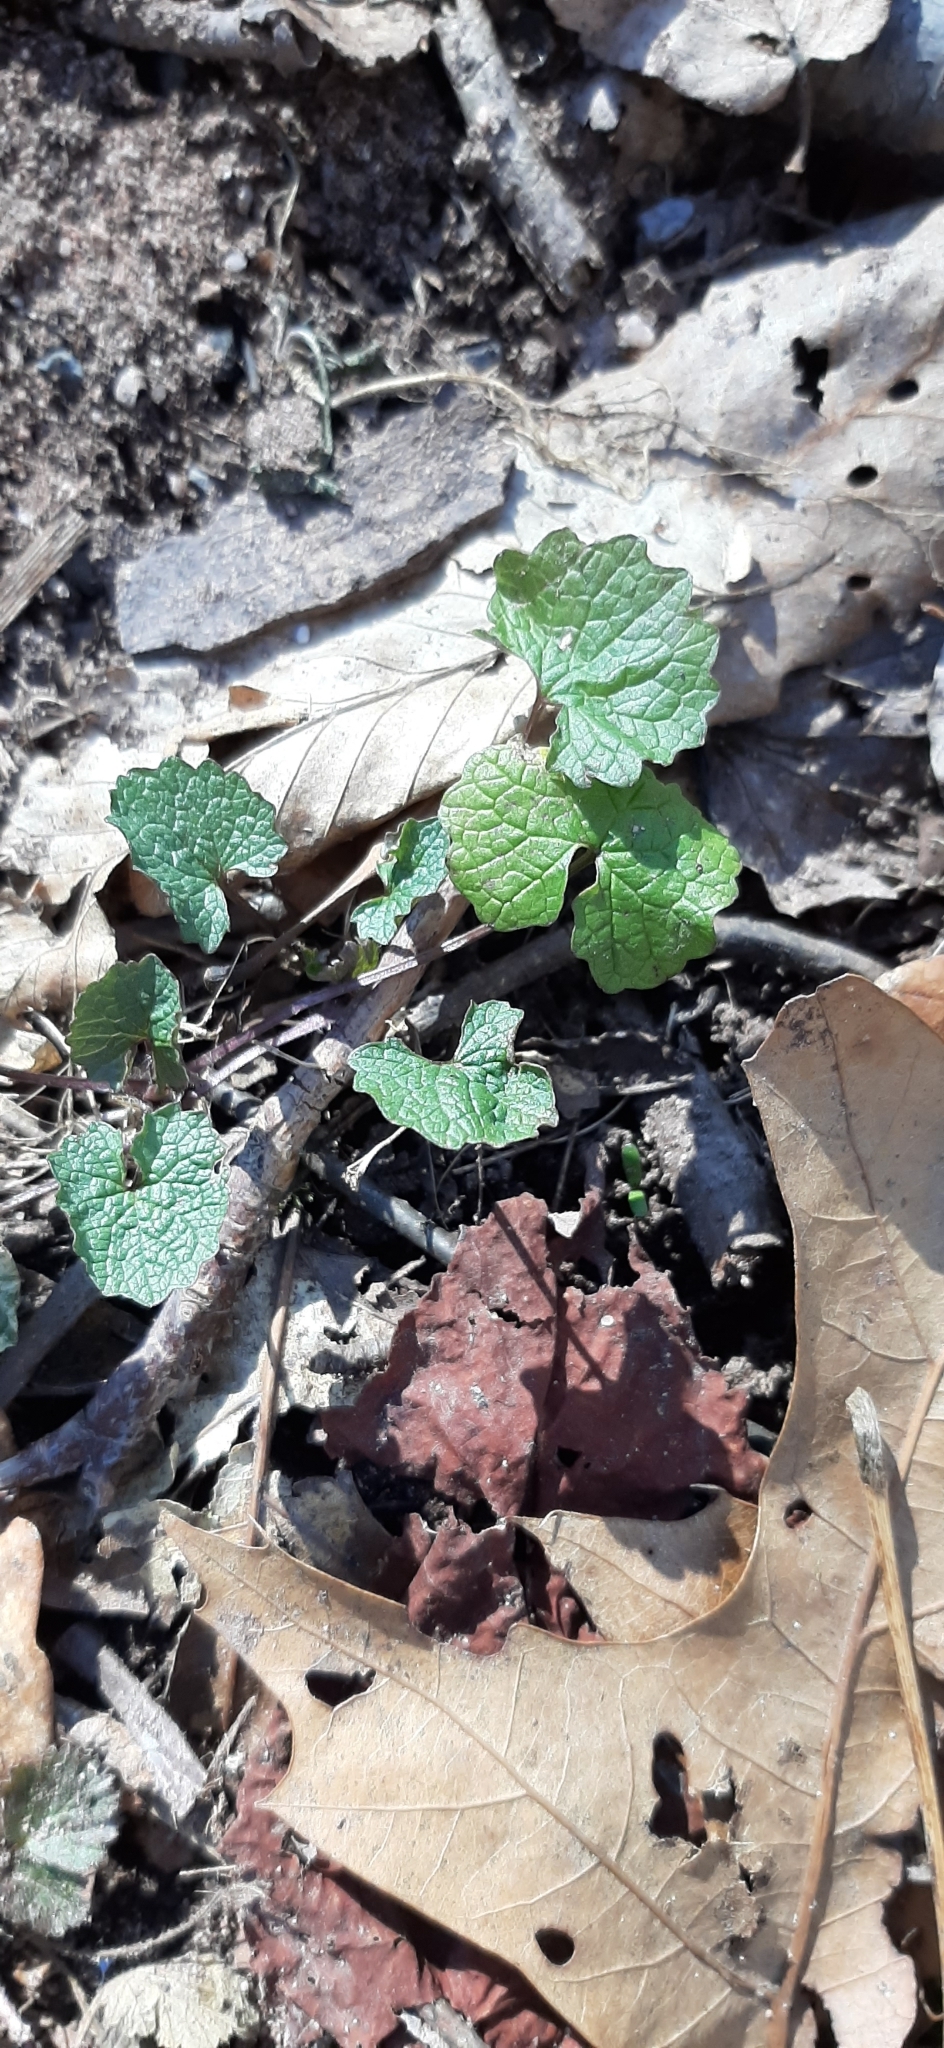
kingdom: Plantae
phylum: Tracheophyta
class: Magnoliopsida
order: Brassicales
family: Brassicaceae
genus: Alliaria
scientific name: Alliaria petiolata
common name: Garlic mustard
